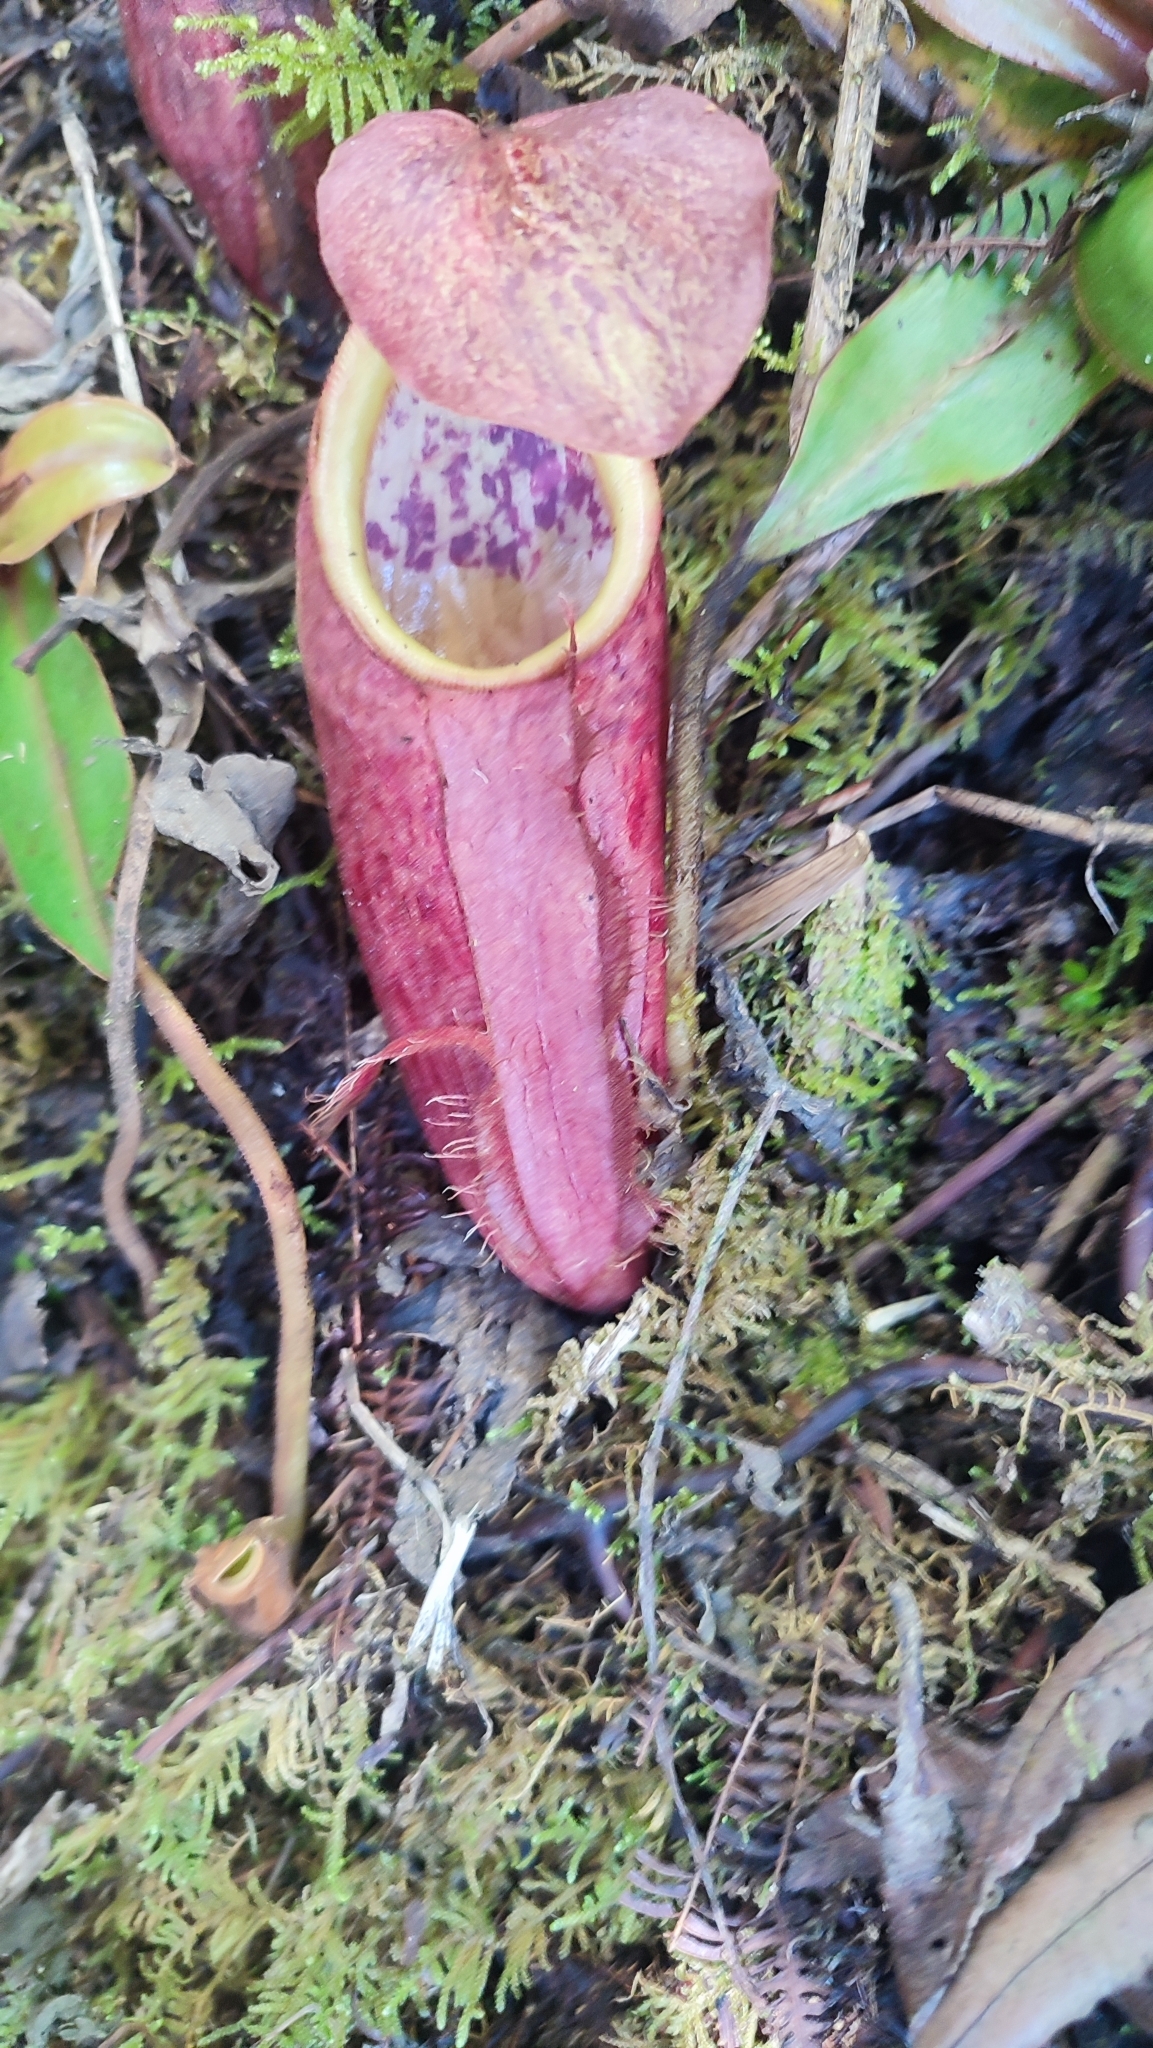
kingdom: Plantae
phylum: Tracheophyta
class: Magnoliopsida
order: Caryophyllales
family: Nepenthaceae
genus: Nepenthes
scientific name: Nepenthes gymnamphora
